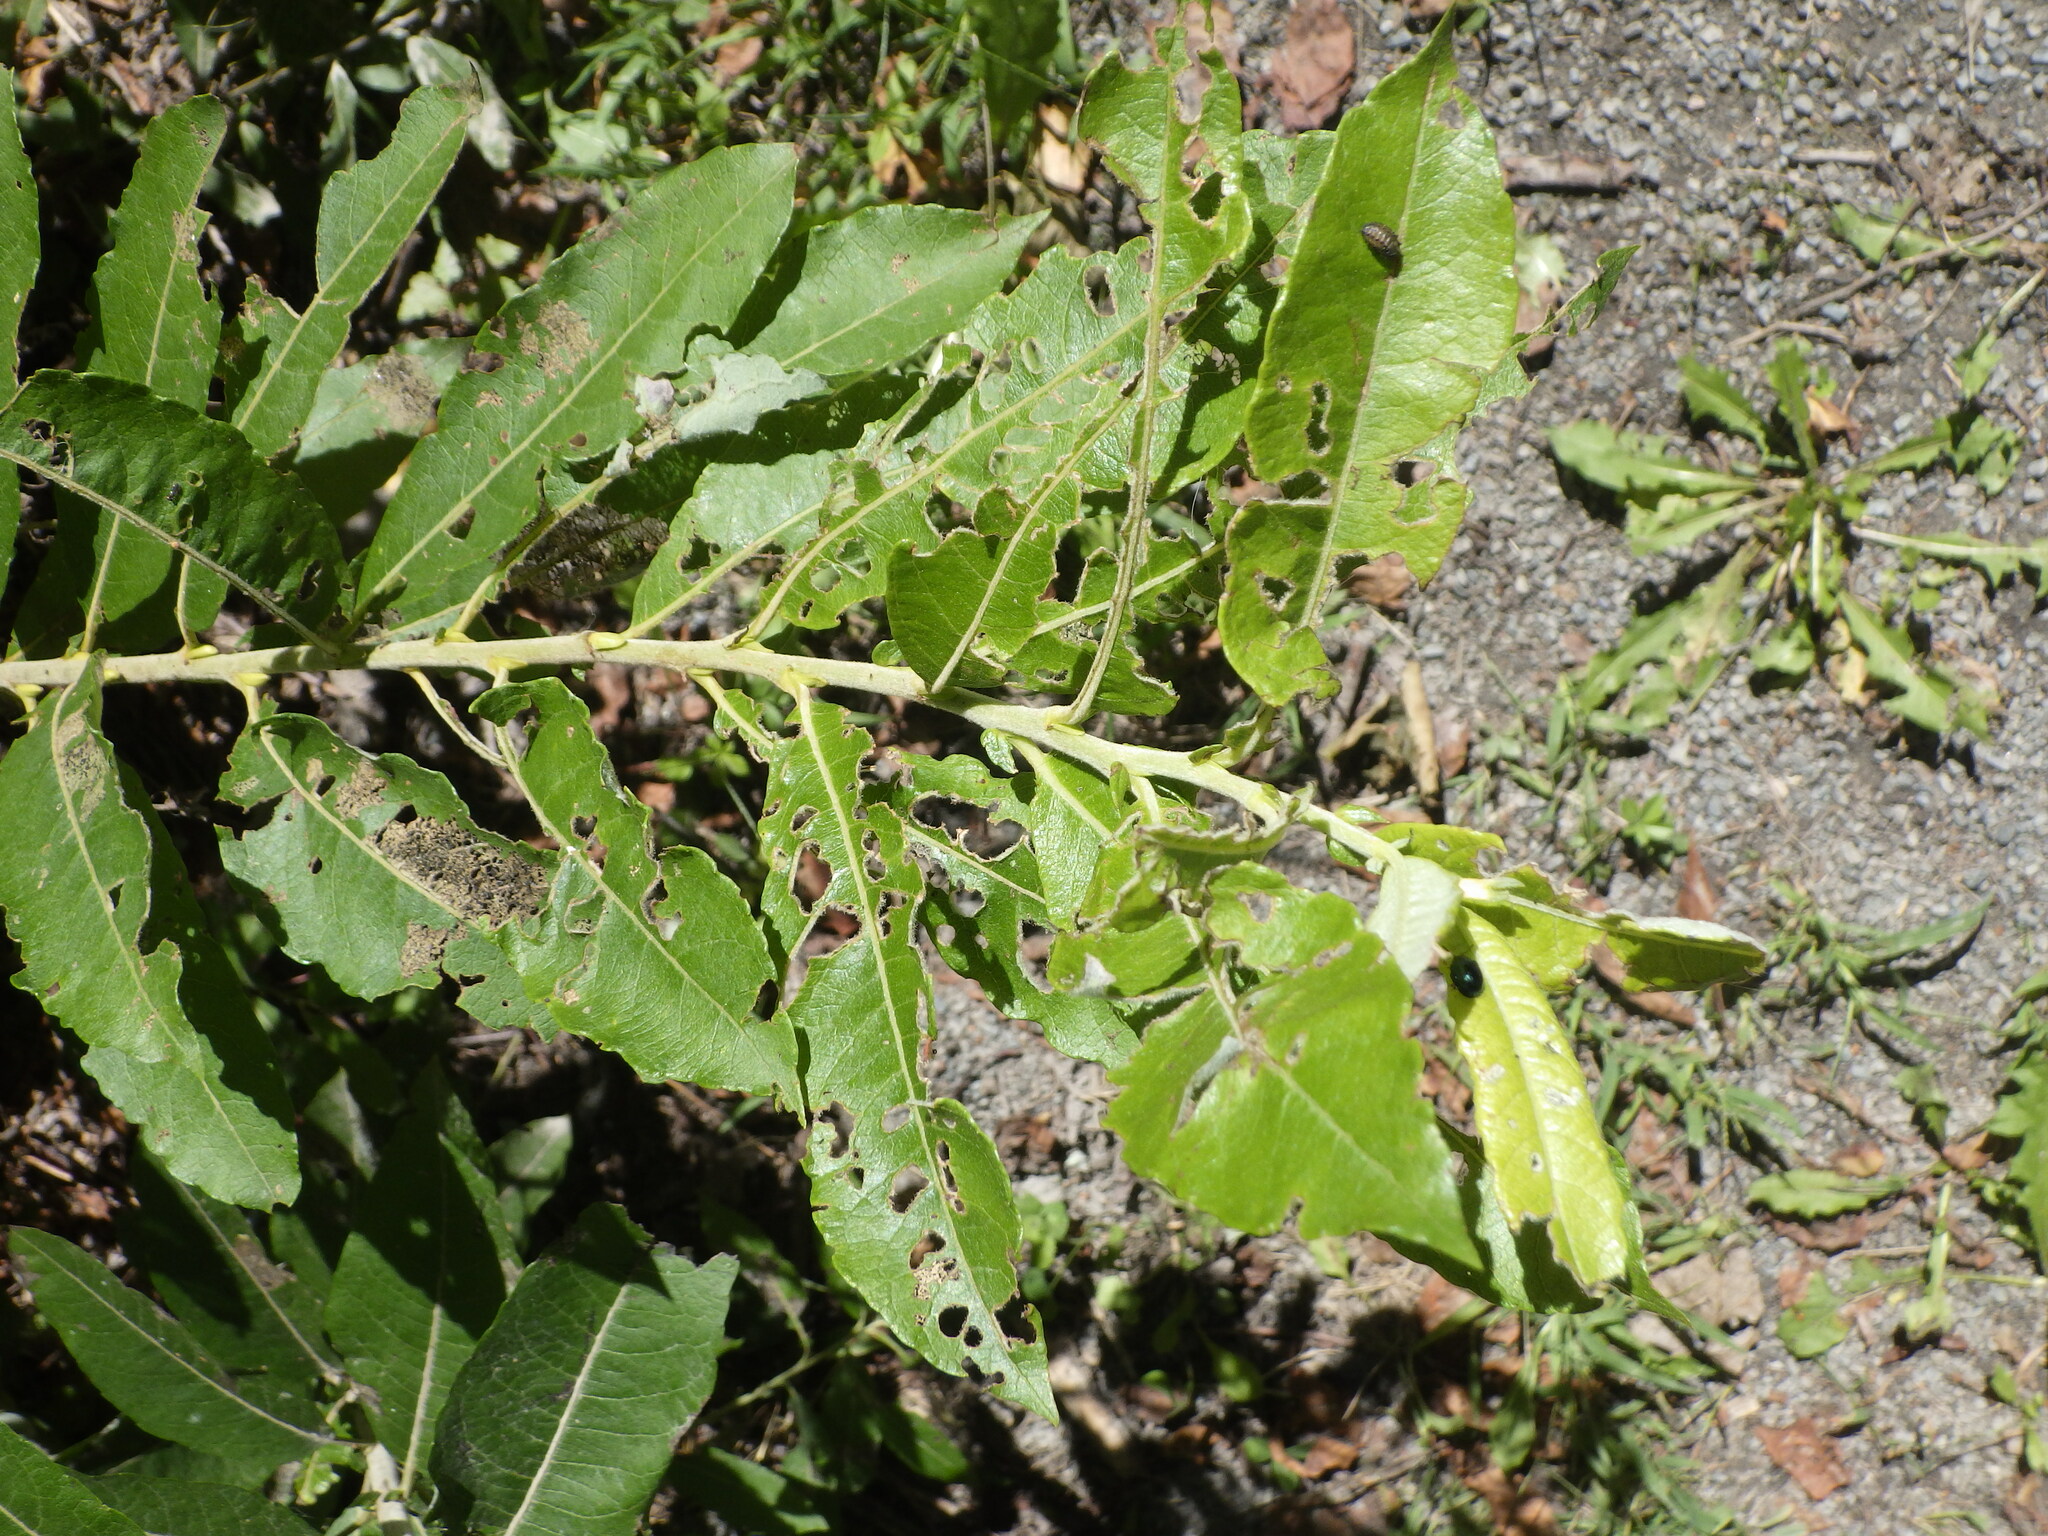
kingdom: Animalia
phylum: Arthropoda
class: Insecta
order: Coleoptera
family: Chrysomelidae
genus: Plagiodera
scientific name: Plagiodera versicolora
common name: Imported willow leaf beetle
